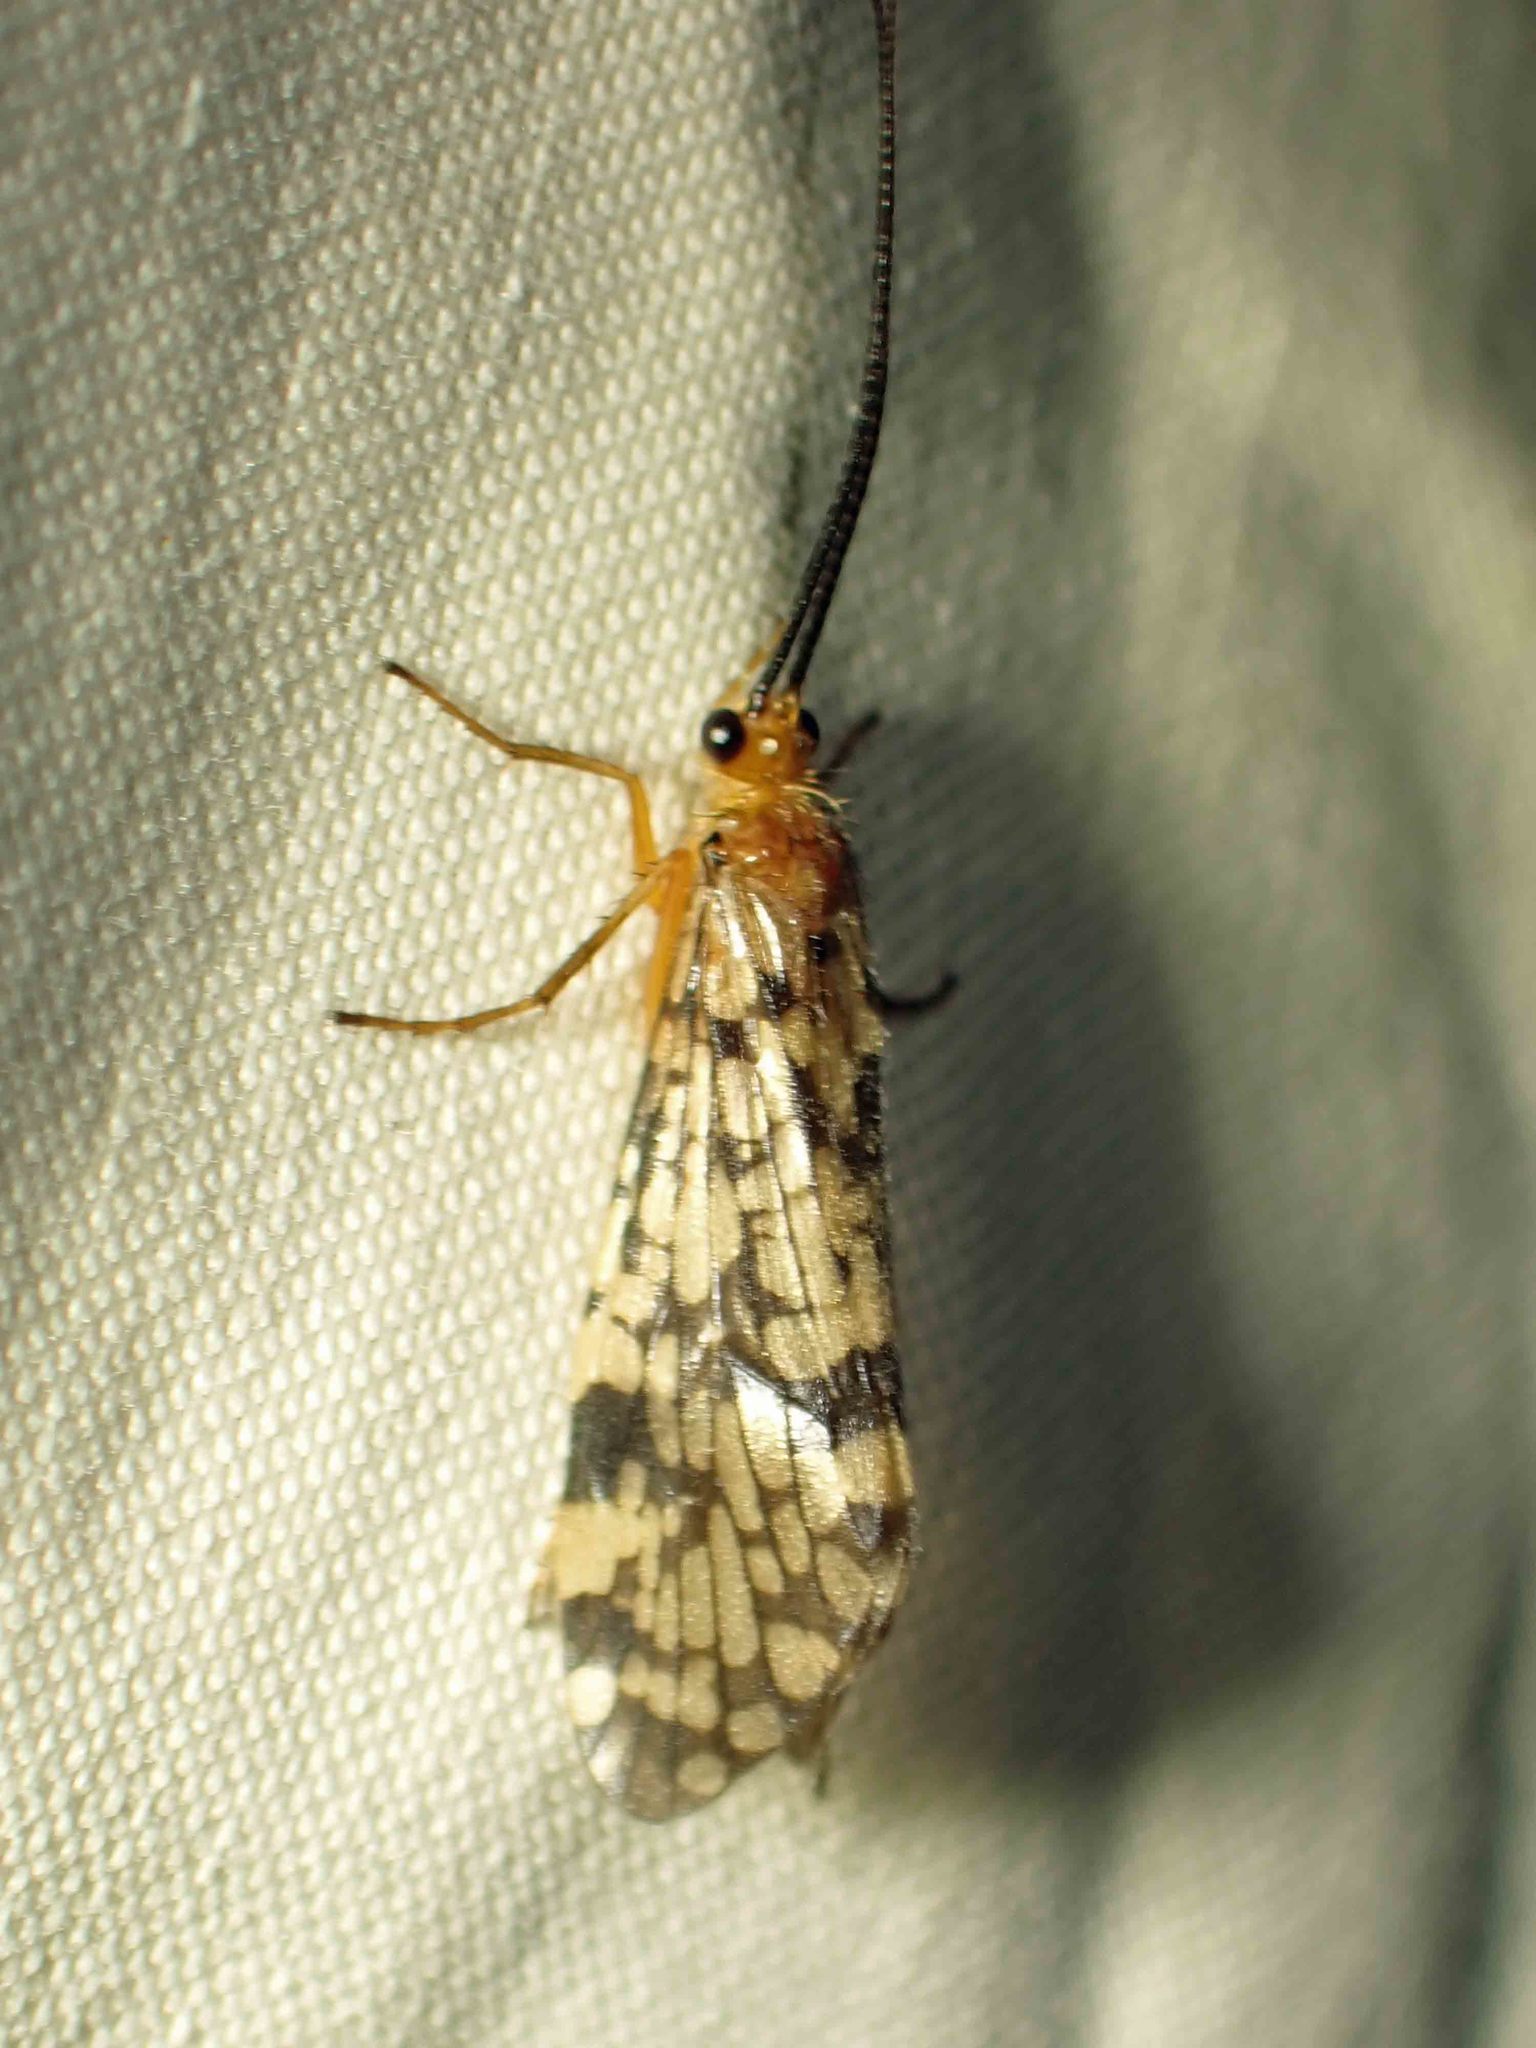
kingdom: Animalia
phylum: Arthropoda
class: Insecta
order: Trichoptera
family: Phryganeidae
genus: Banksiola
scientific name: Banksiola dossuaria
